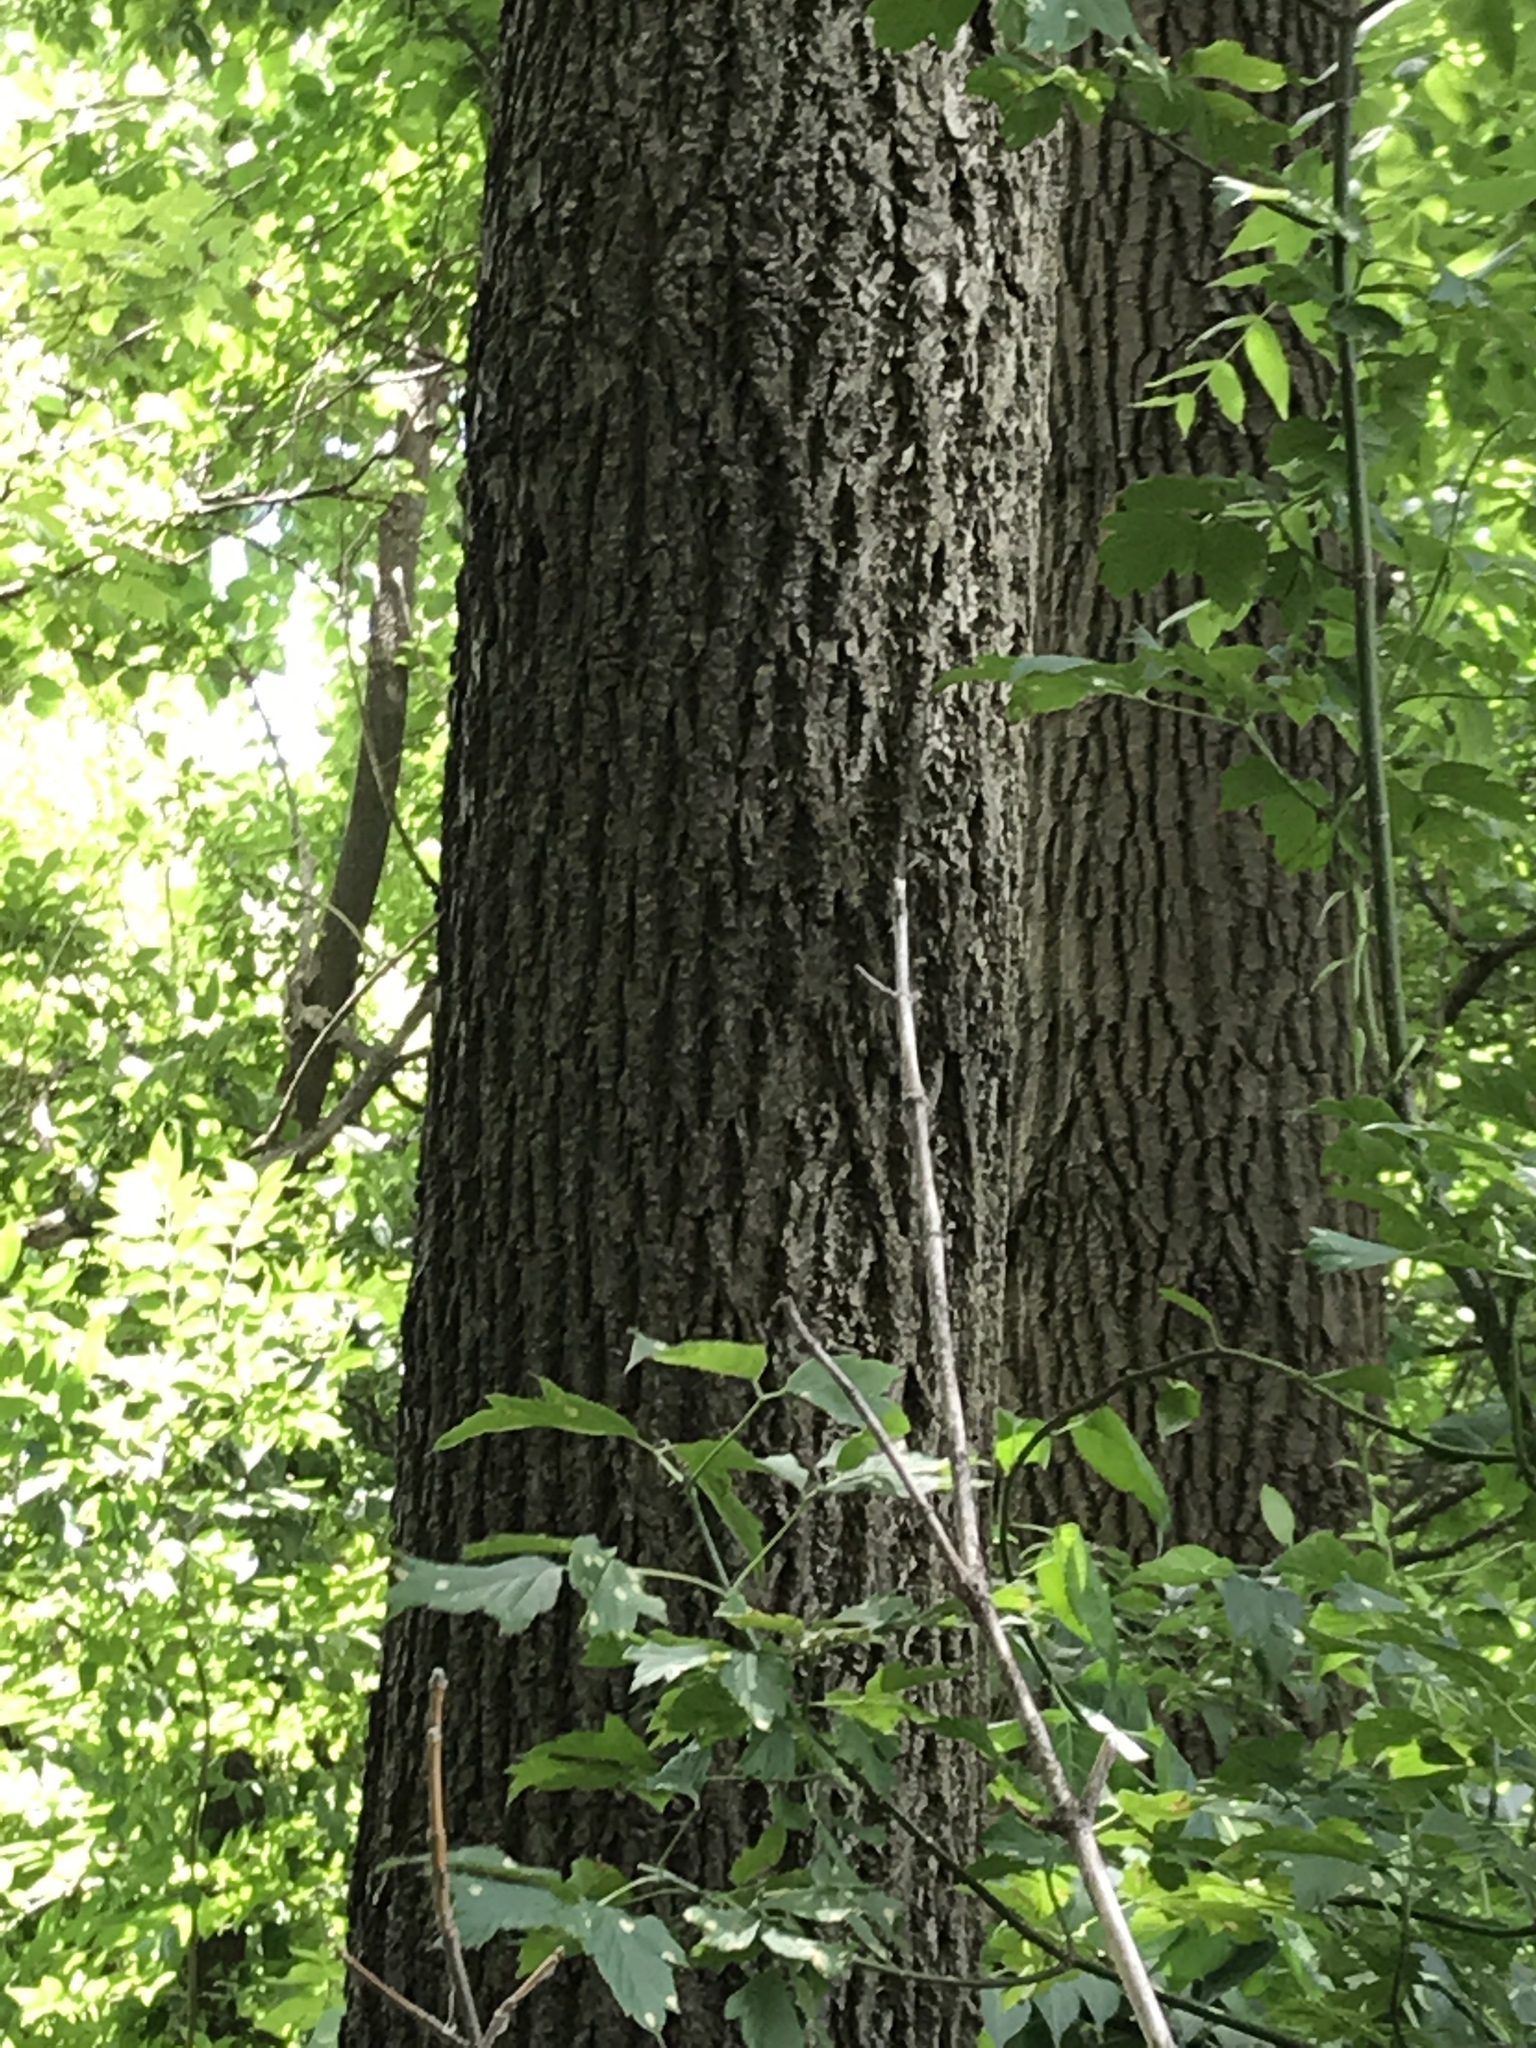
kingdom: Plantae
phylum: Tracheophyta
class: Magnoliopsida
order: Fagales
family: Juglandaceae
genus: Juglans
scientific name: Juglans nigra
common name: Black walnut
